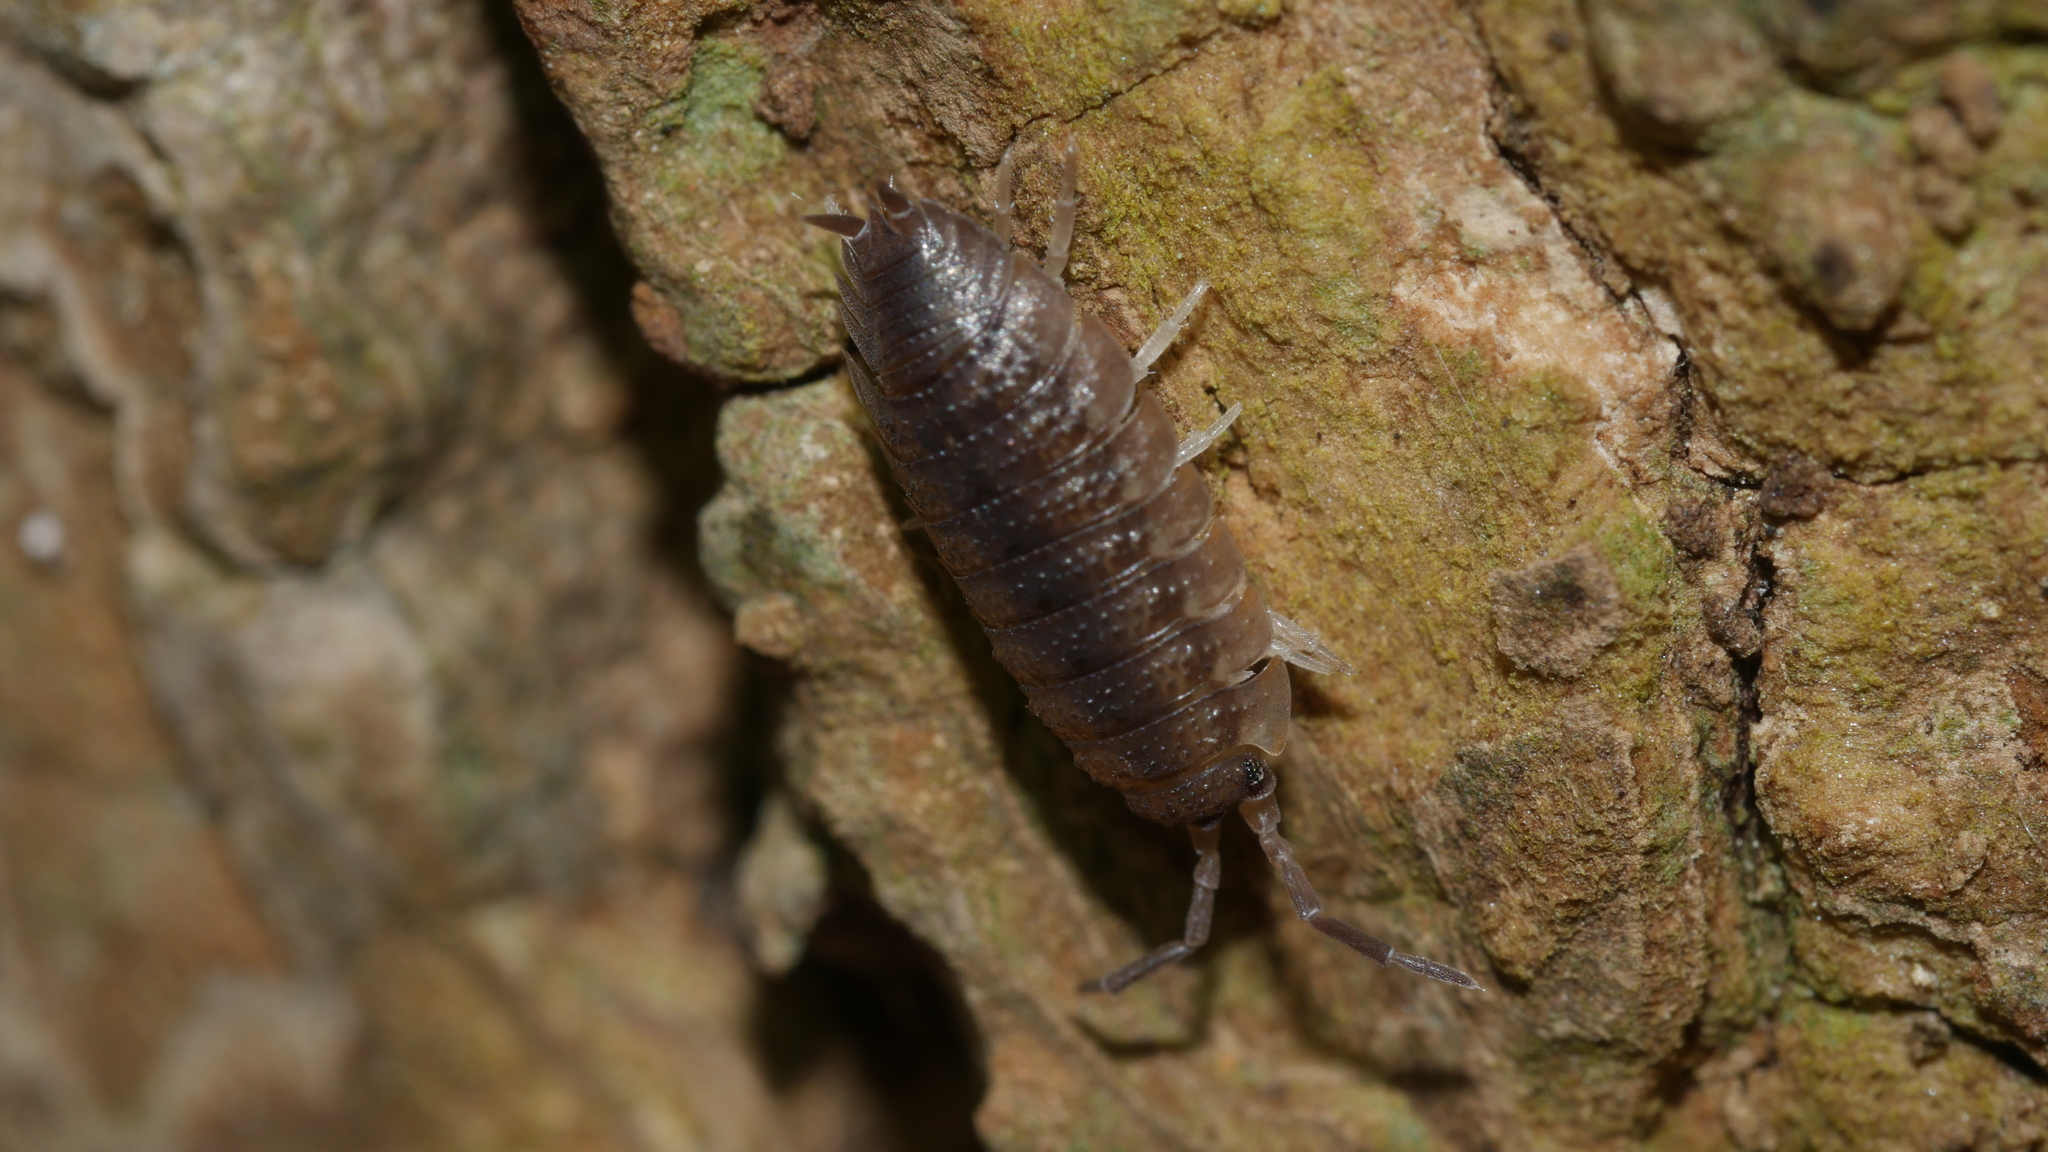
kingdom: Animalia
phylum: Arthropoda
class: Malacostraca
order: Isopoda
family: Porcellionidae
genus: Porcellio
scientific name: Porcellio scaber
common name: Common rough woodlouse
